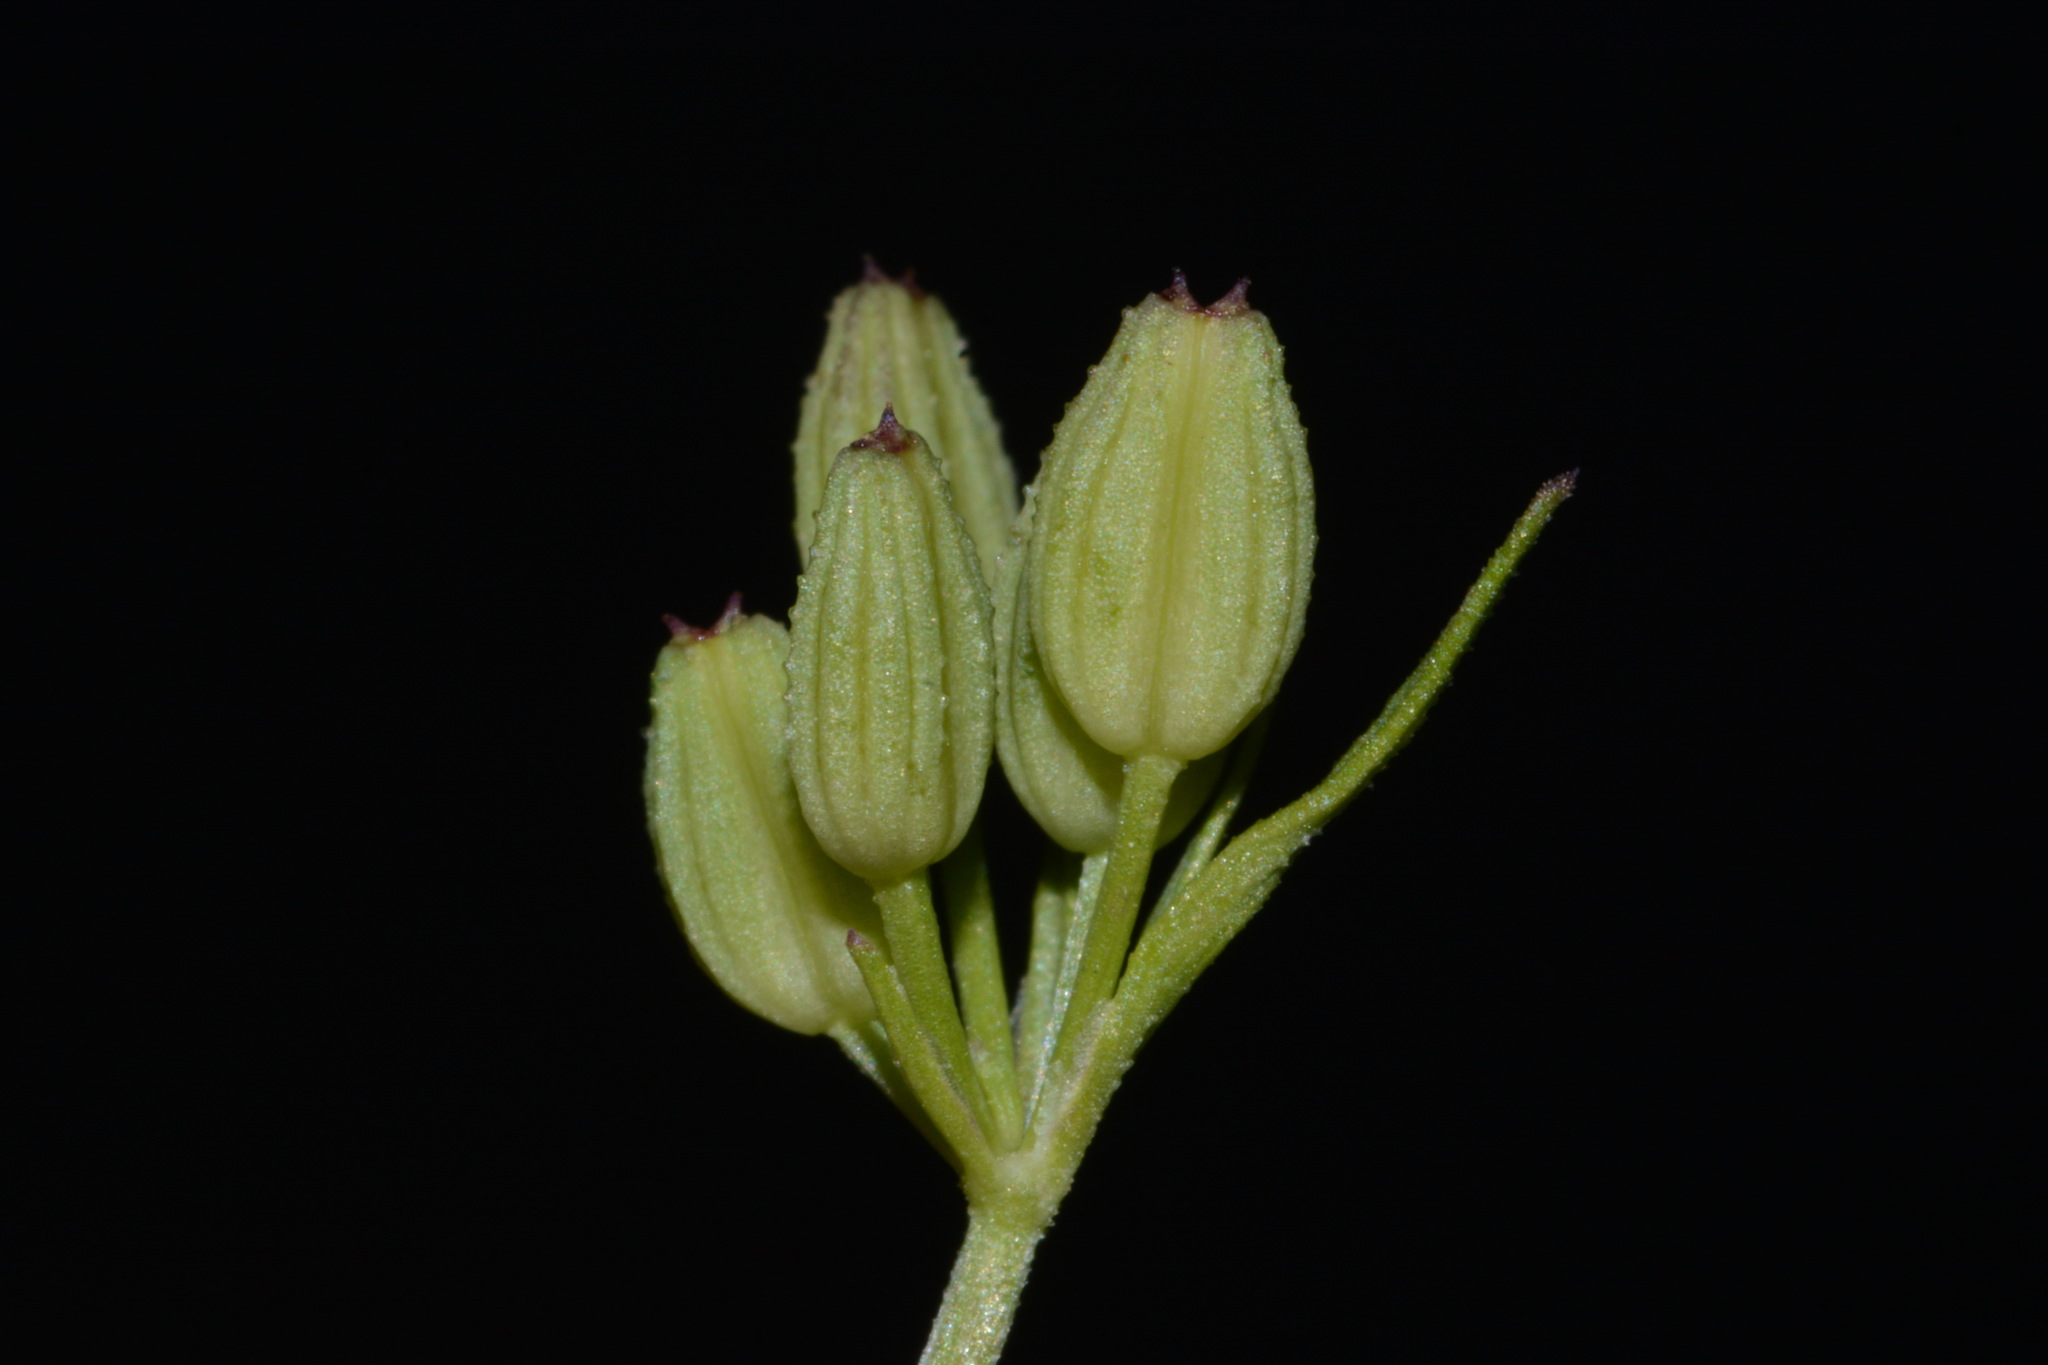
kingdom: Plantae
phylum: Tracheophyta
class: Magnoliopsida
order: Apiales
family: Apiaceae
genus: Ammoselinum
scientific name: Ammoselinum popei
